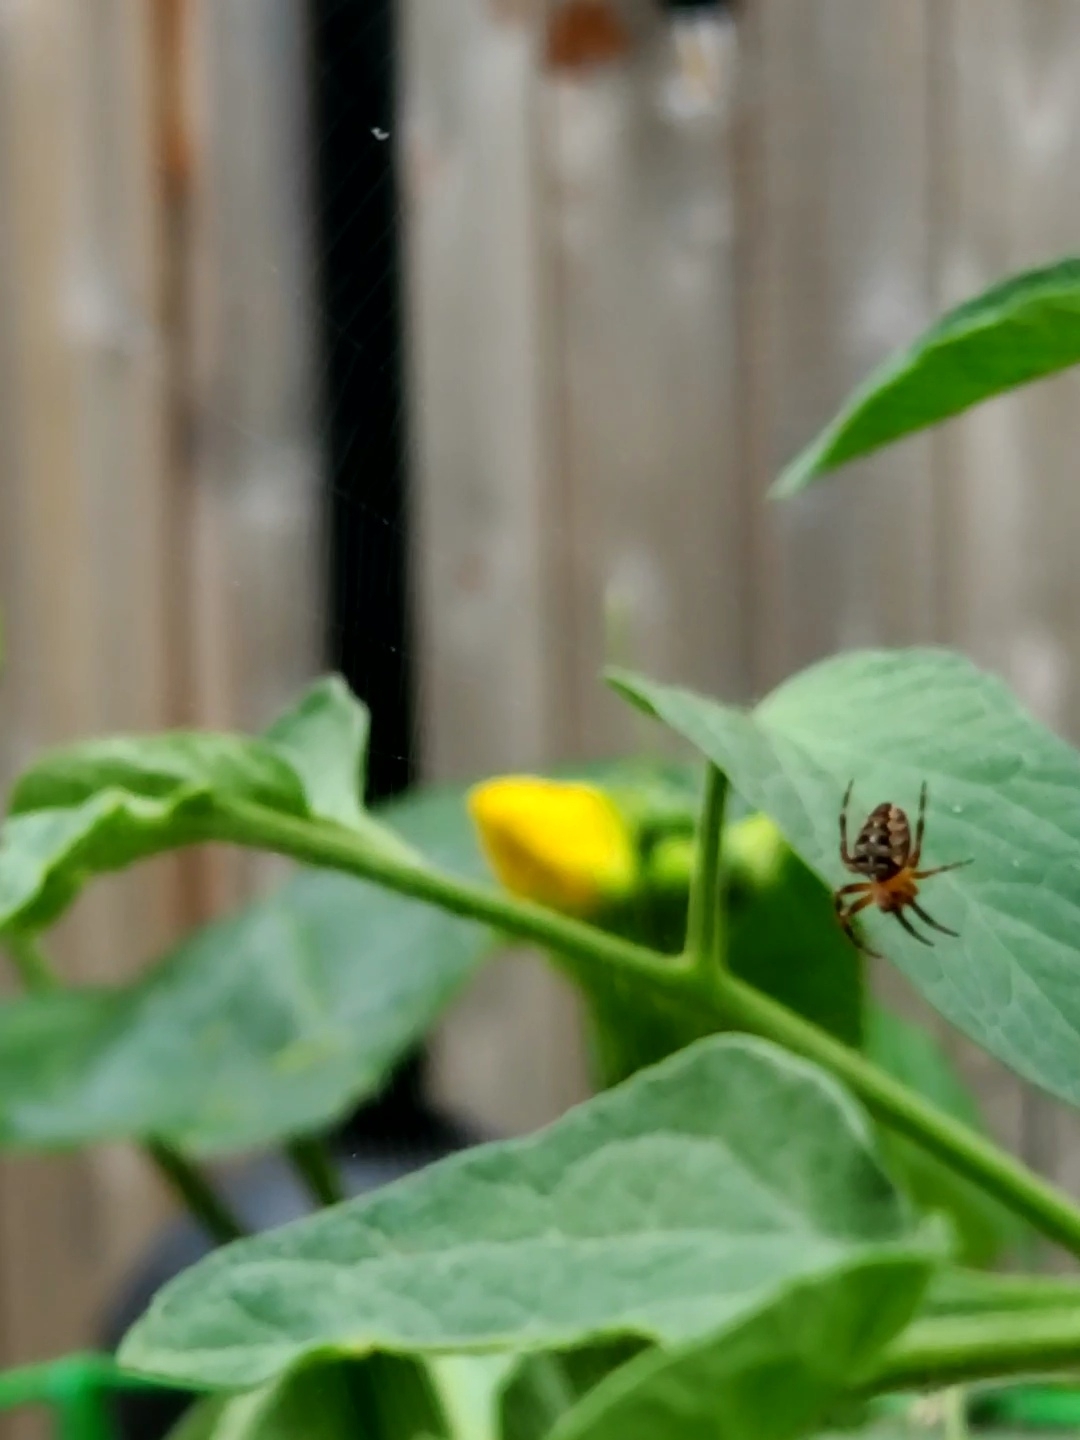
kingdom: Animalia
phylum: Arthropoda
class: Arachnida
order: Araneae
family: Araneidae
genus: Araneus
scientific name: Araneus diadematus
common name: Cross orbweaver
